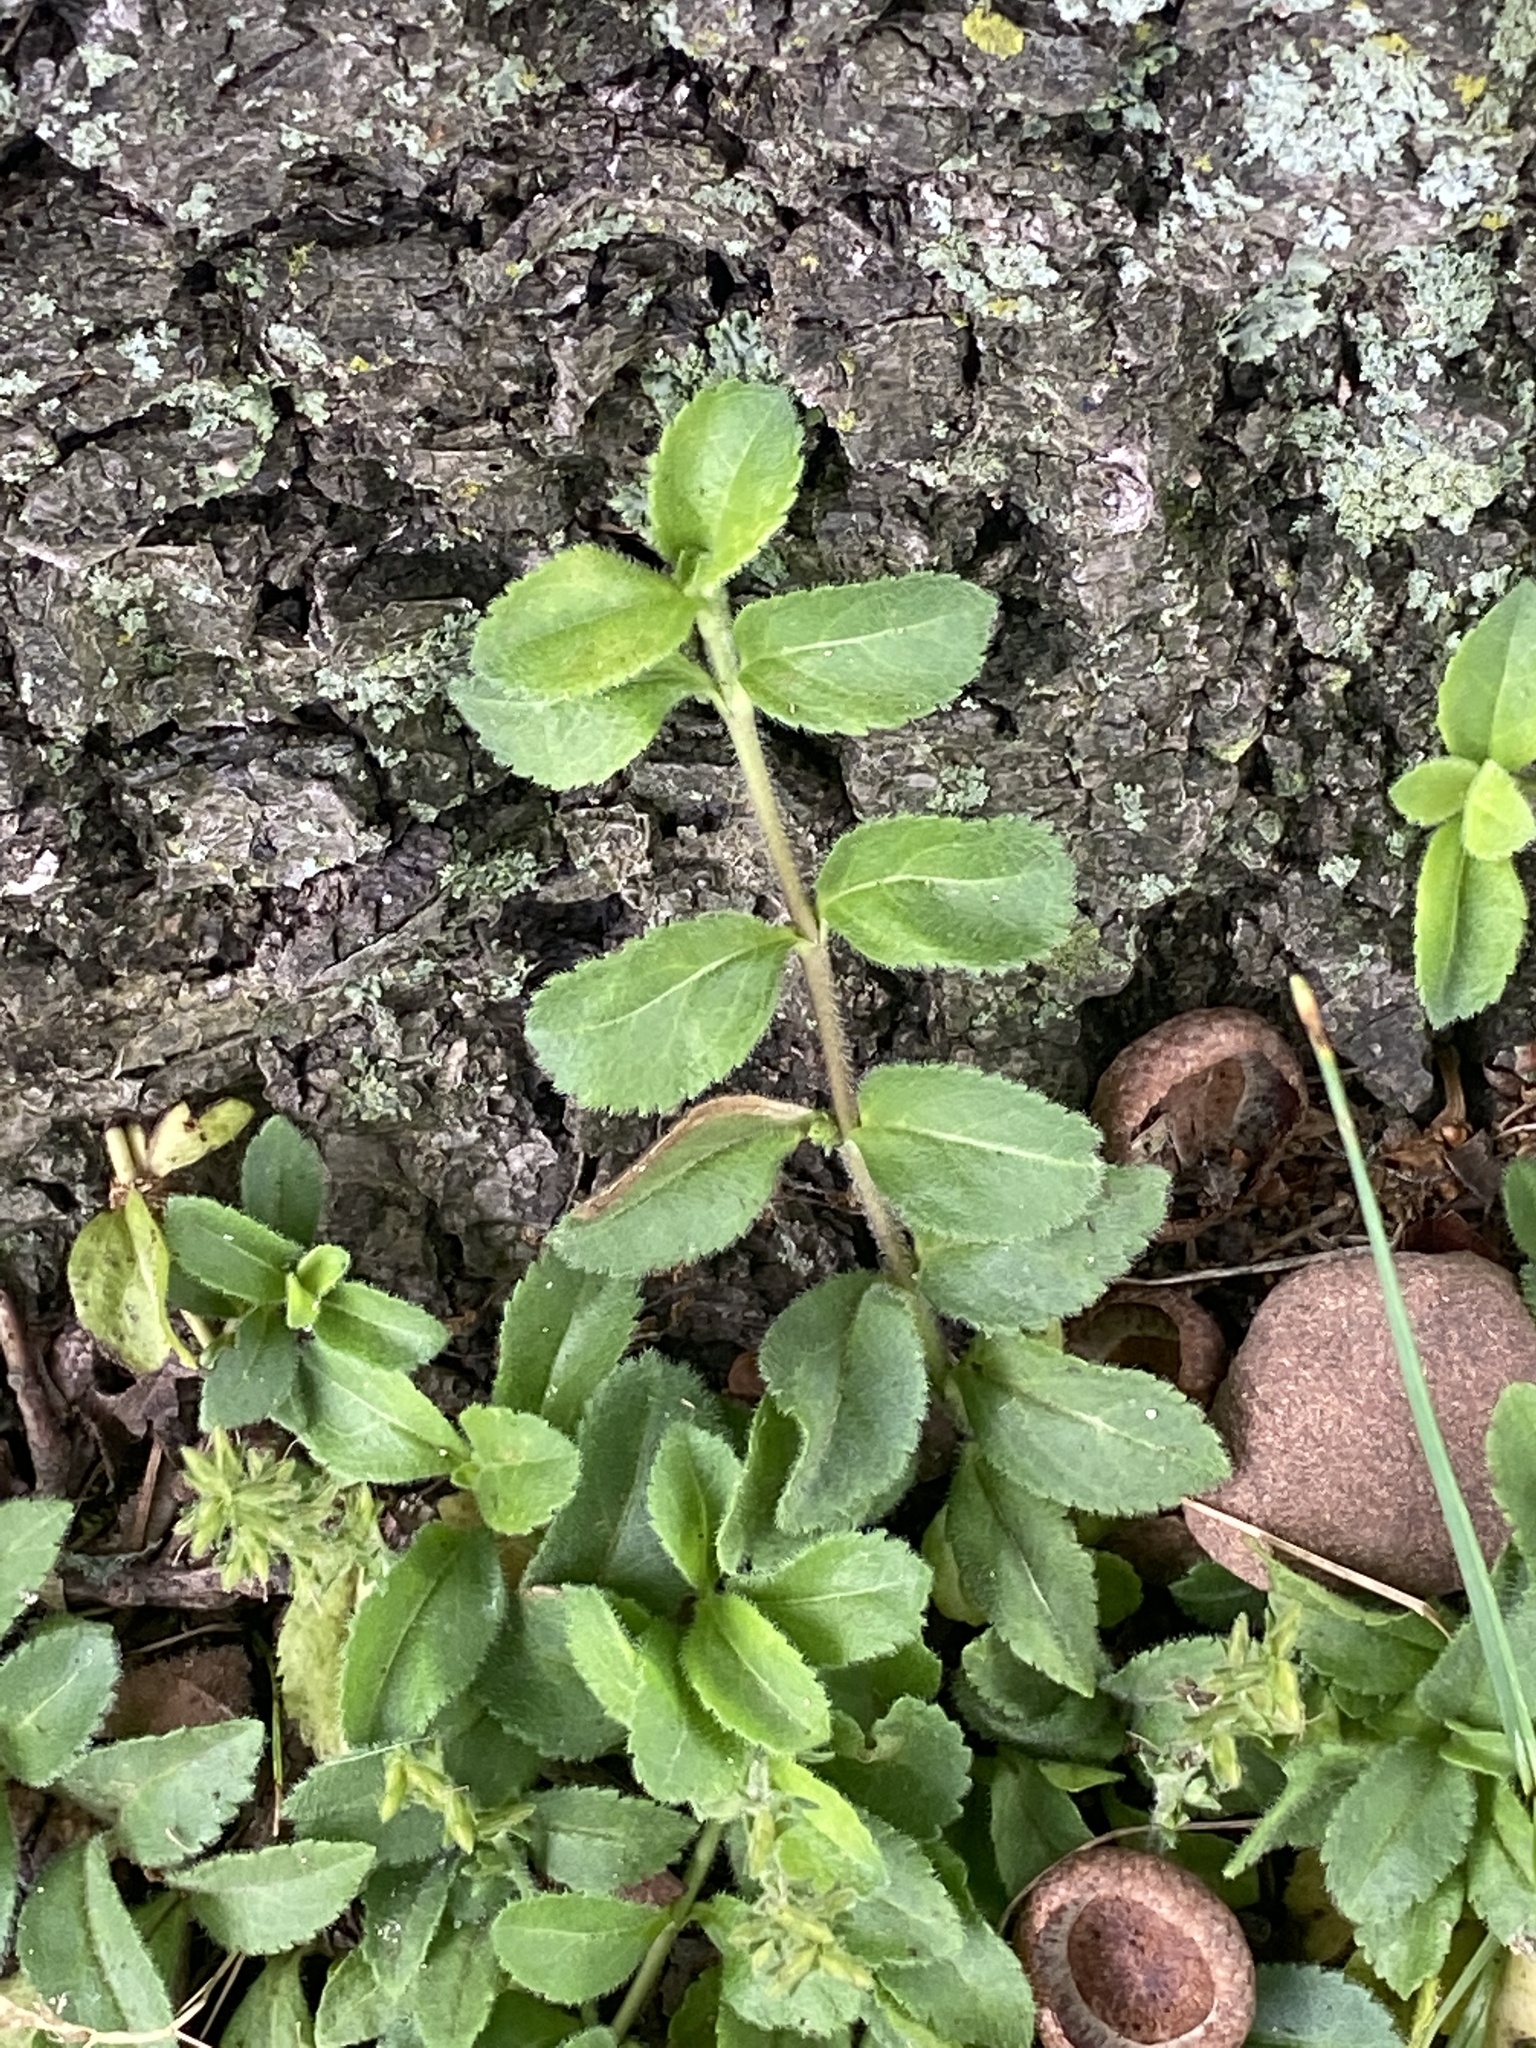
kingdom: Plantae
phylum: Tracheophyta
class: Magnoliopsida
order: Lamiales
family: Plantaginaceae
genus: Veronica
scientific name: Veronica officinalis
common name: Common speedwell
